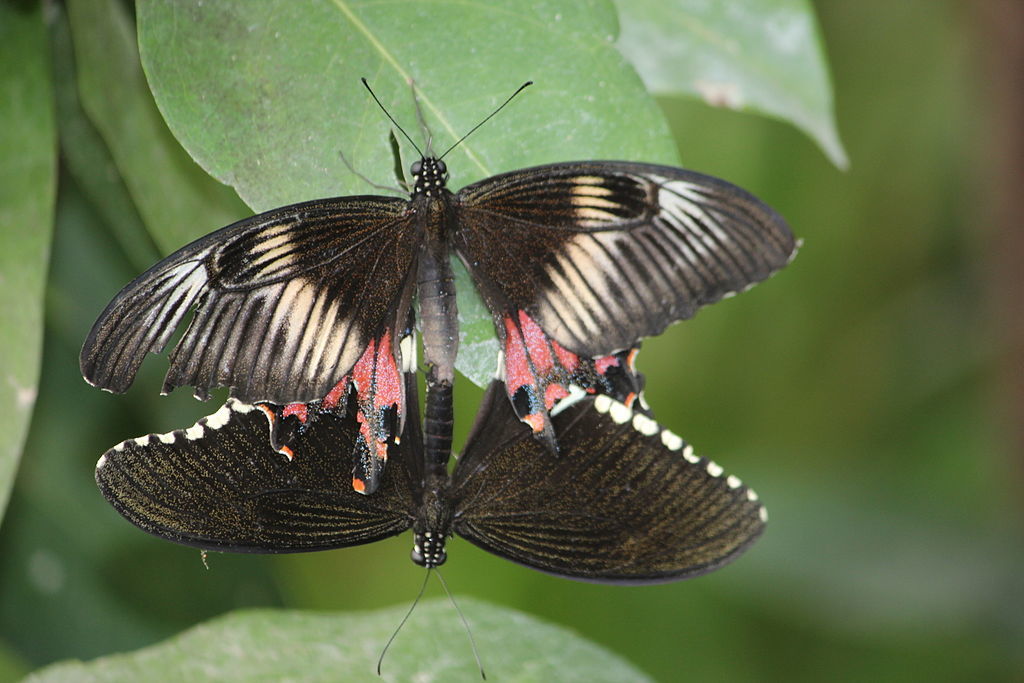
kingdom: Animalia
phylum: Arthropoda
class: Insecta
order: Lepidoptera
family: Papilionidae
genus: Papilio
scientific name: Papilio polytes
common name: Common mormon
